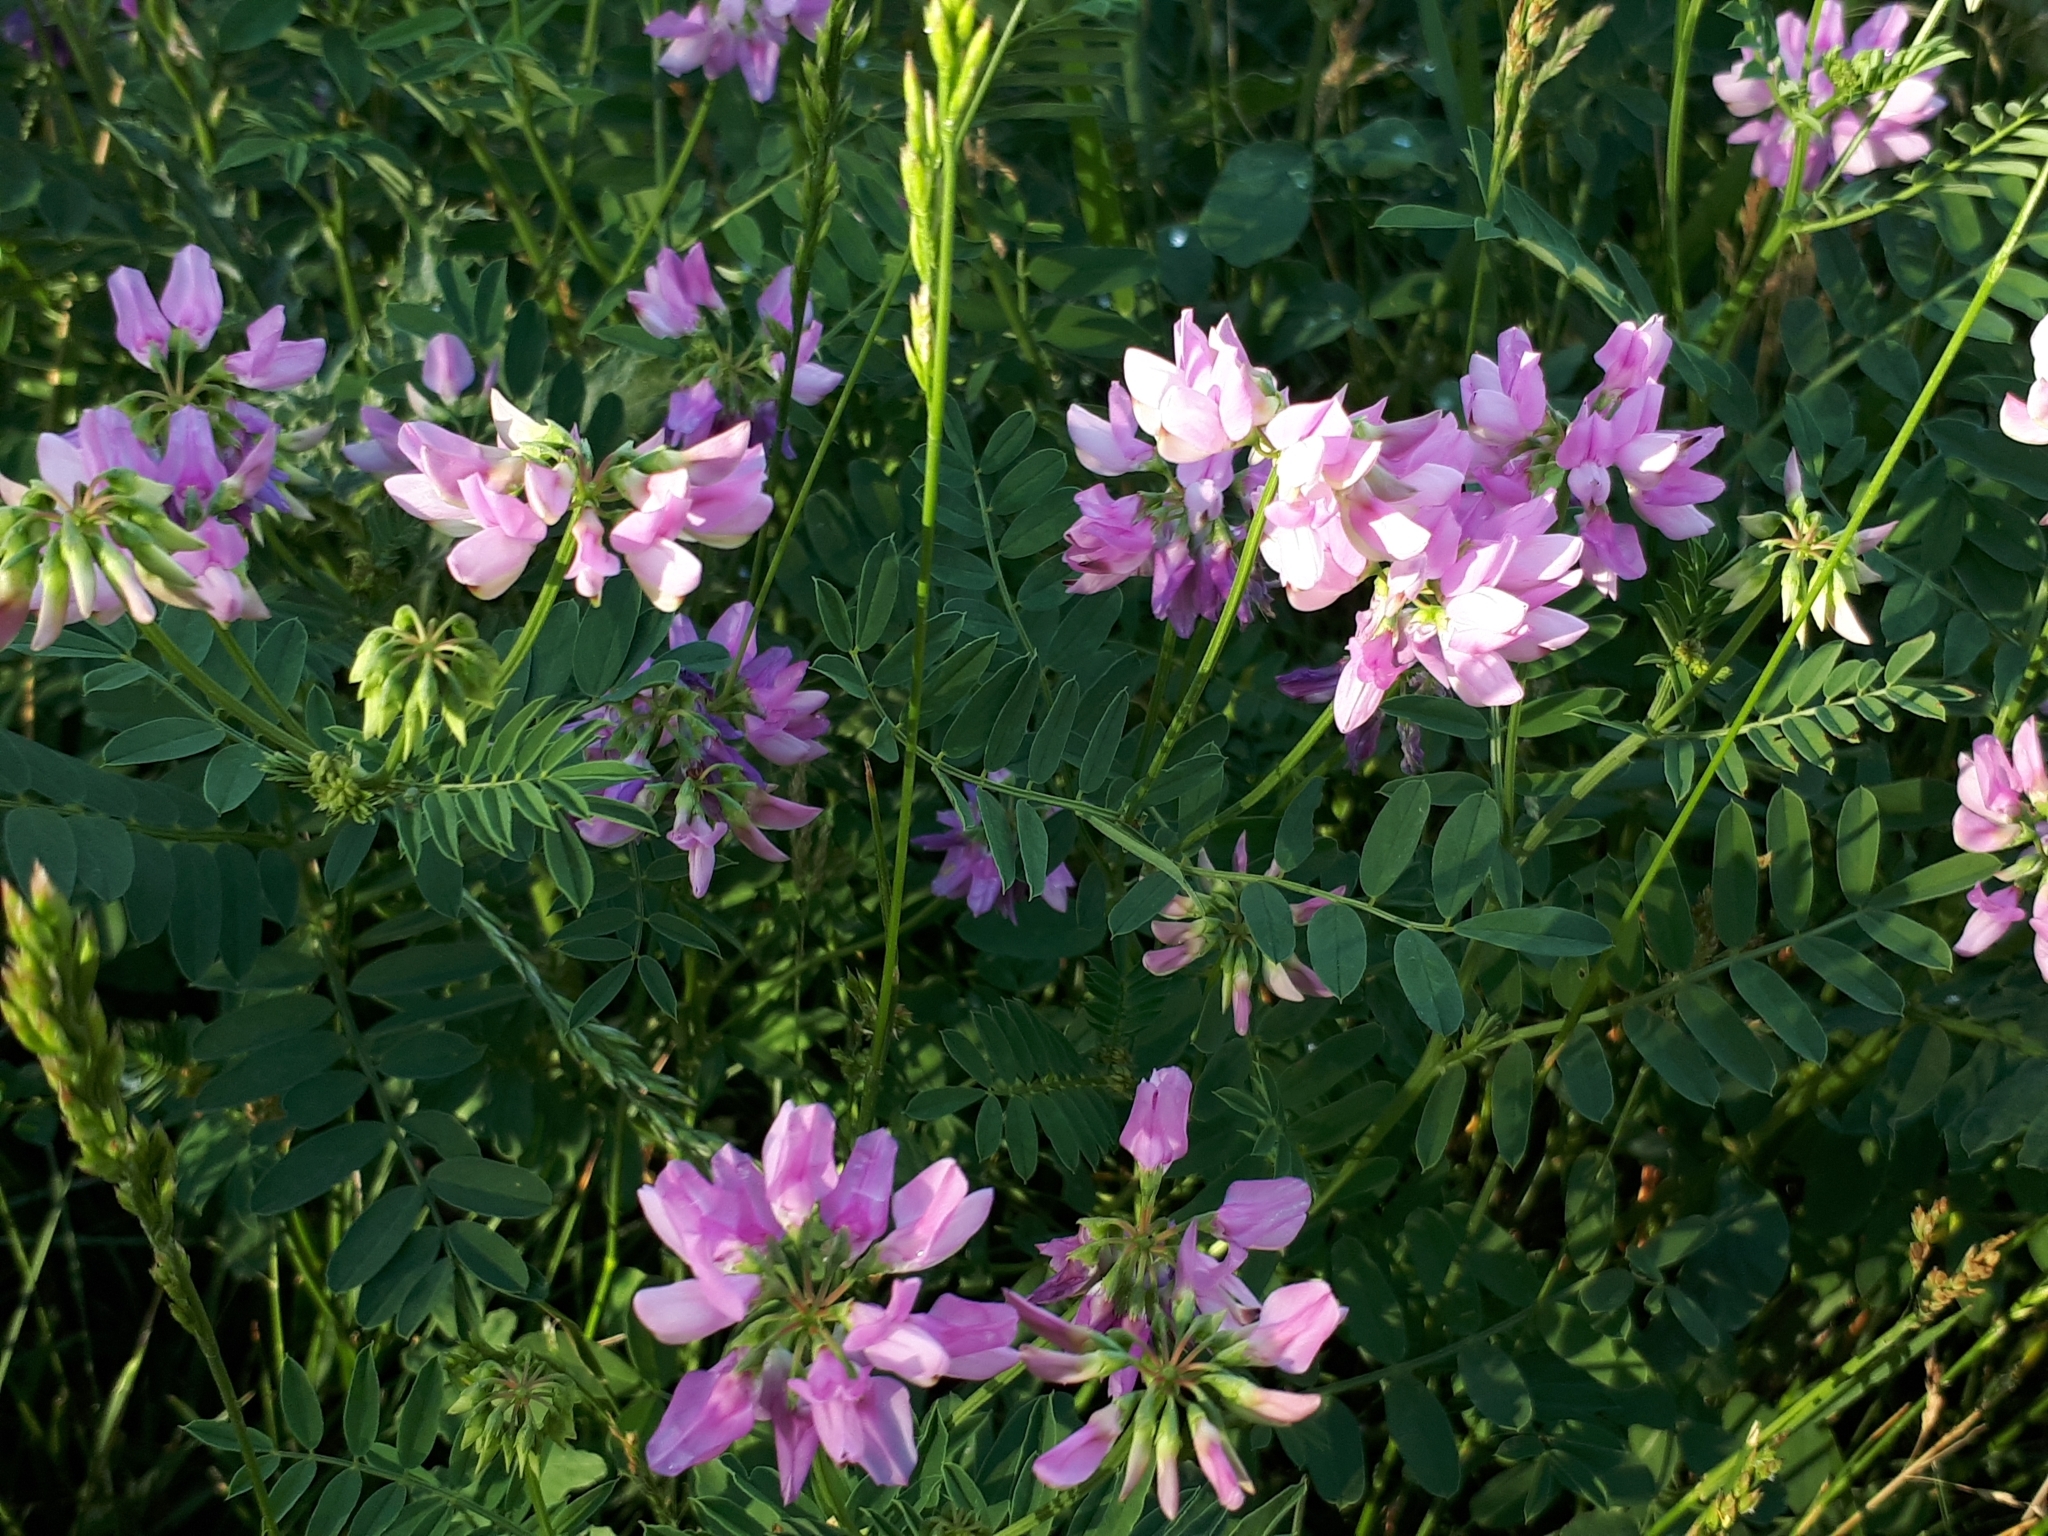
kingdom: Plantae
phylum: Tracheophyta
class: Magnoliopsida
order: Fabales
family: Fabaceae
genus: Coronilla
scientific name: Coronilla varia
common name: Crownvetch
